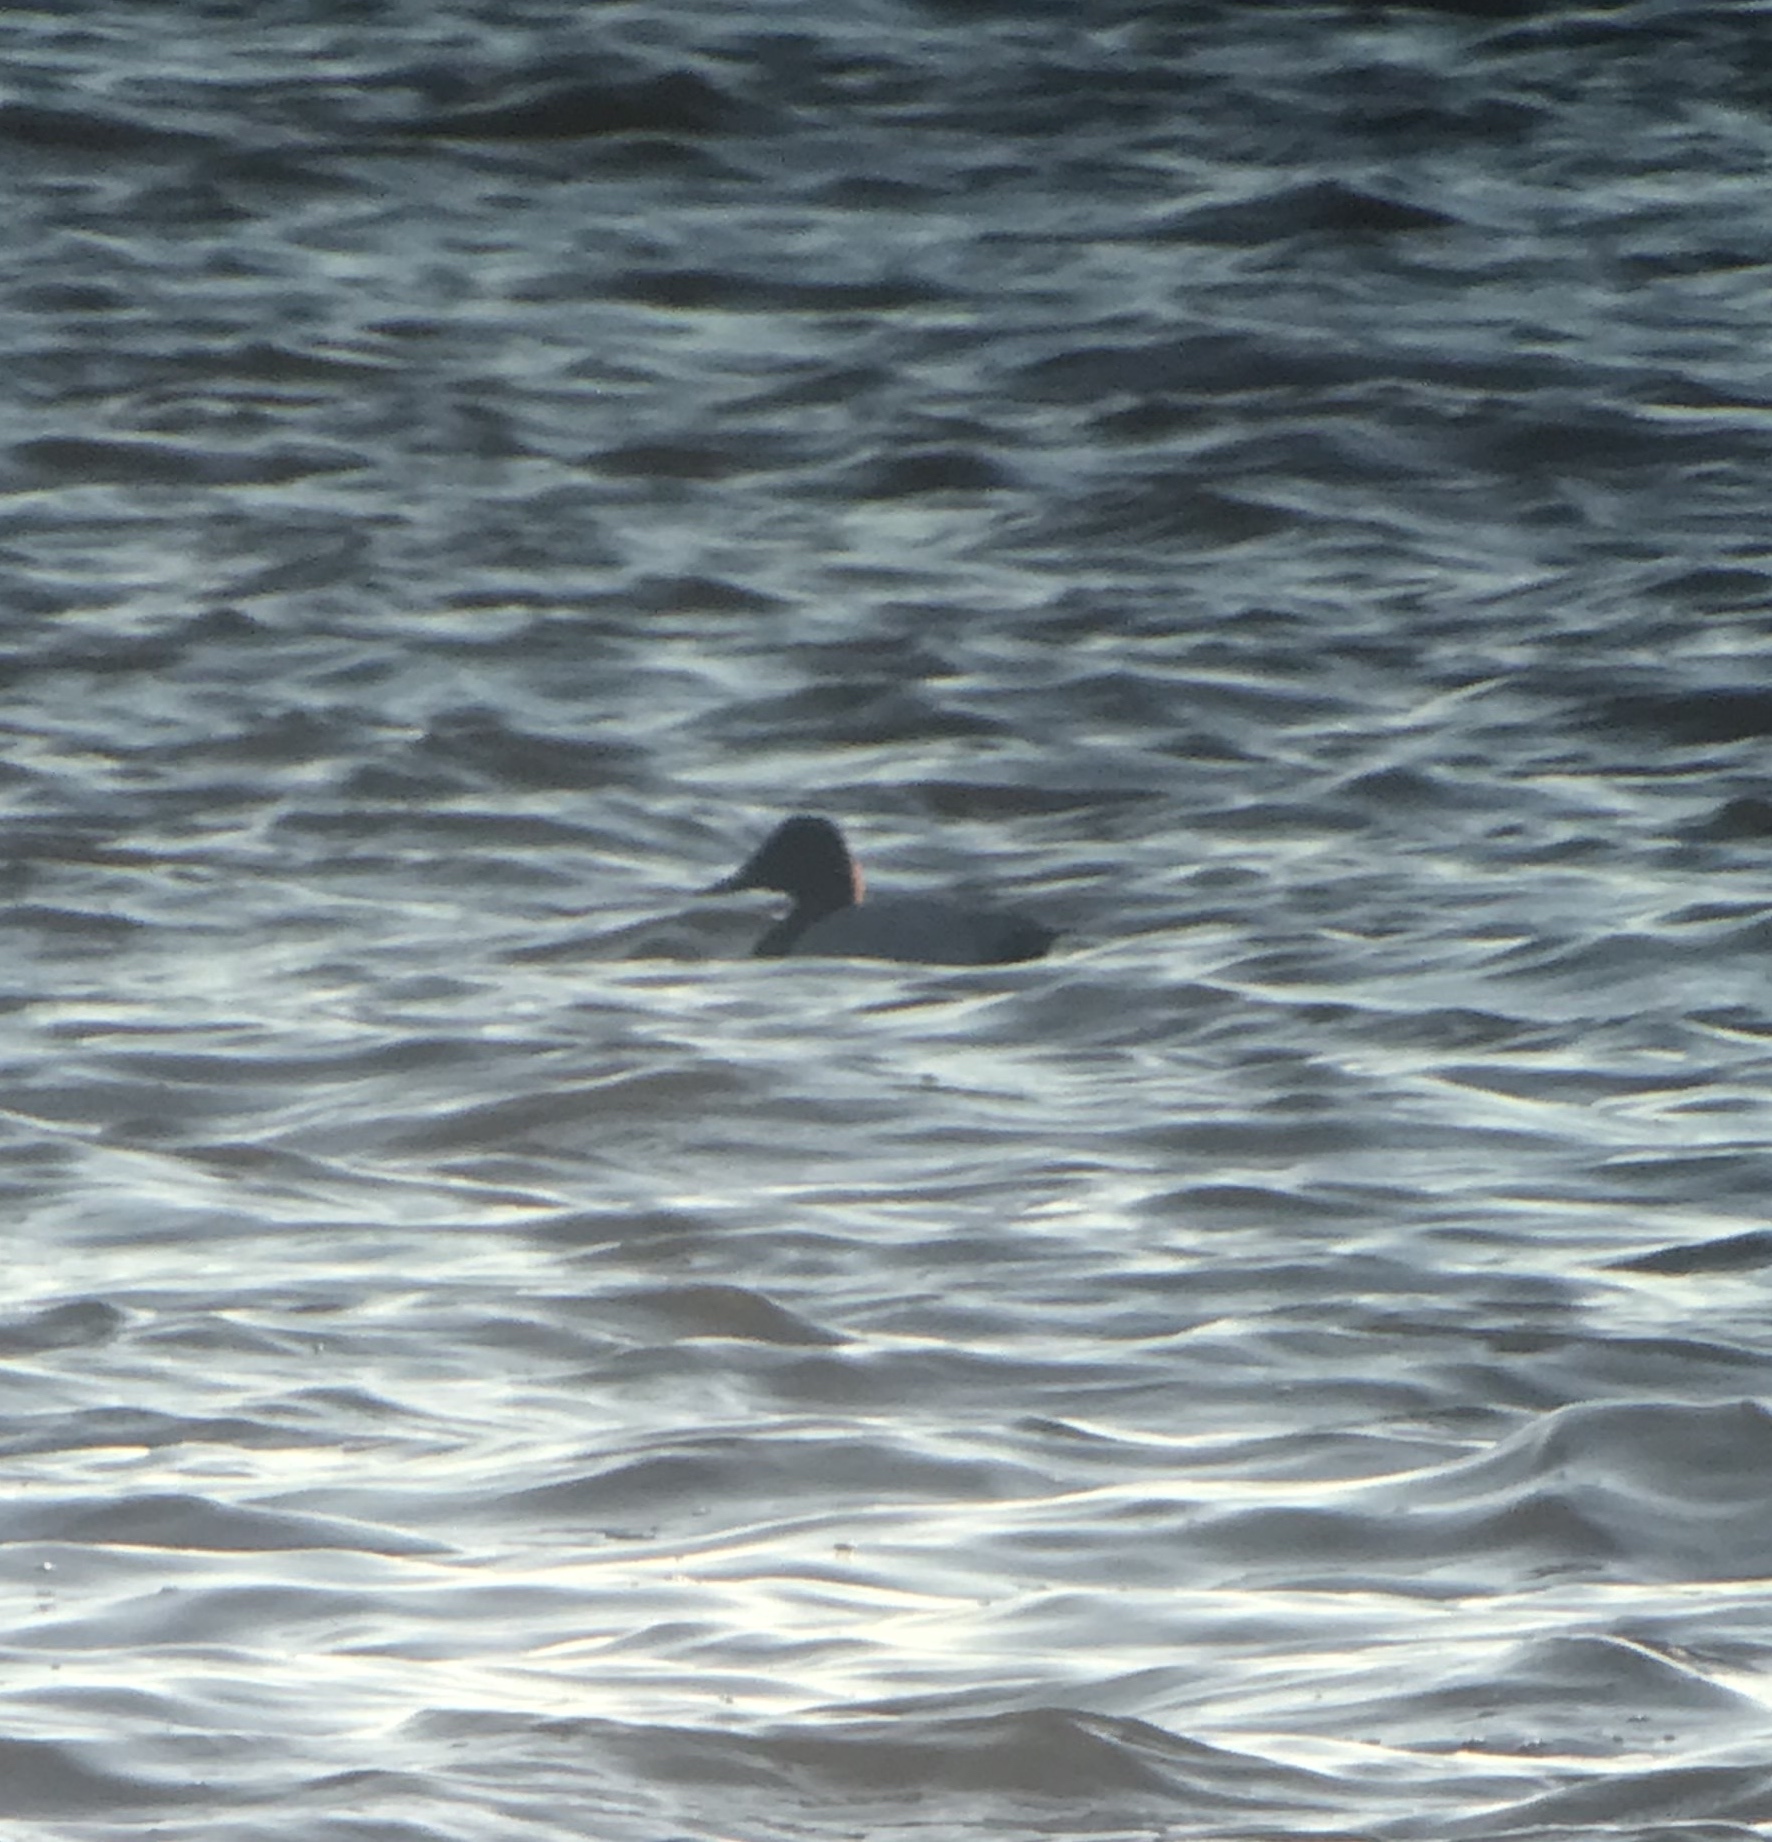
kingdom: Animalia
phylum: Chordata
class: Aves
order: Anseriformes
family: Anatidae
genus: Aythya
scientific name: Aythya valisineria
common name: Canvasback
